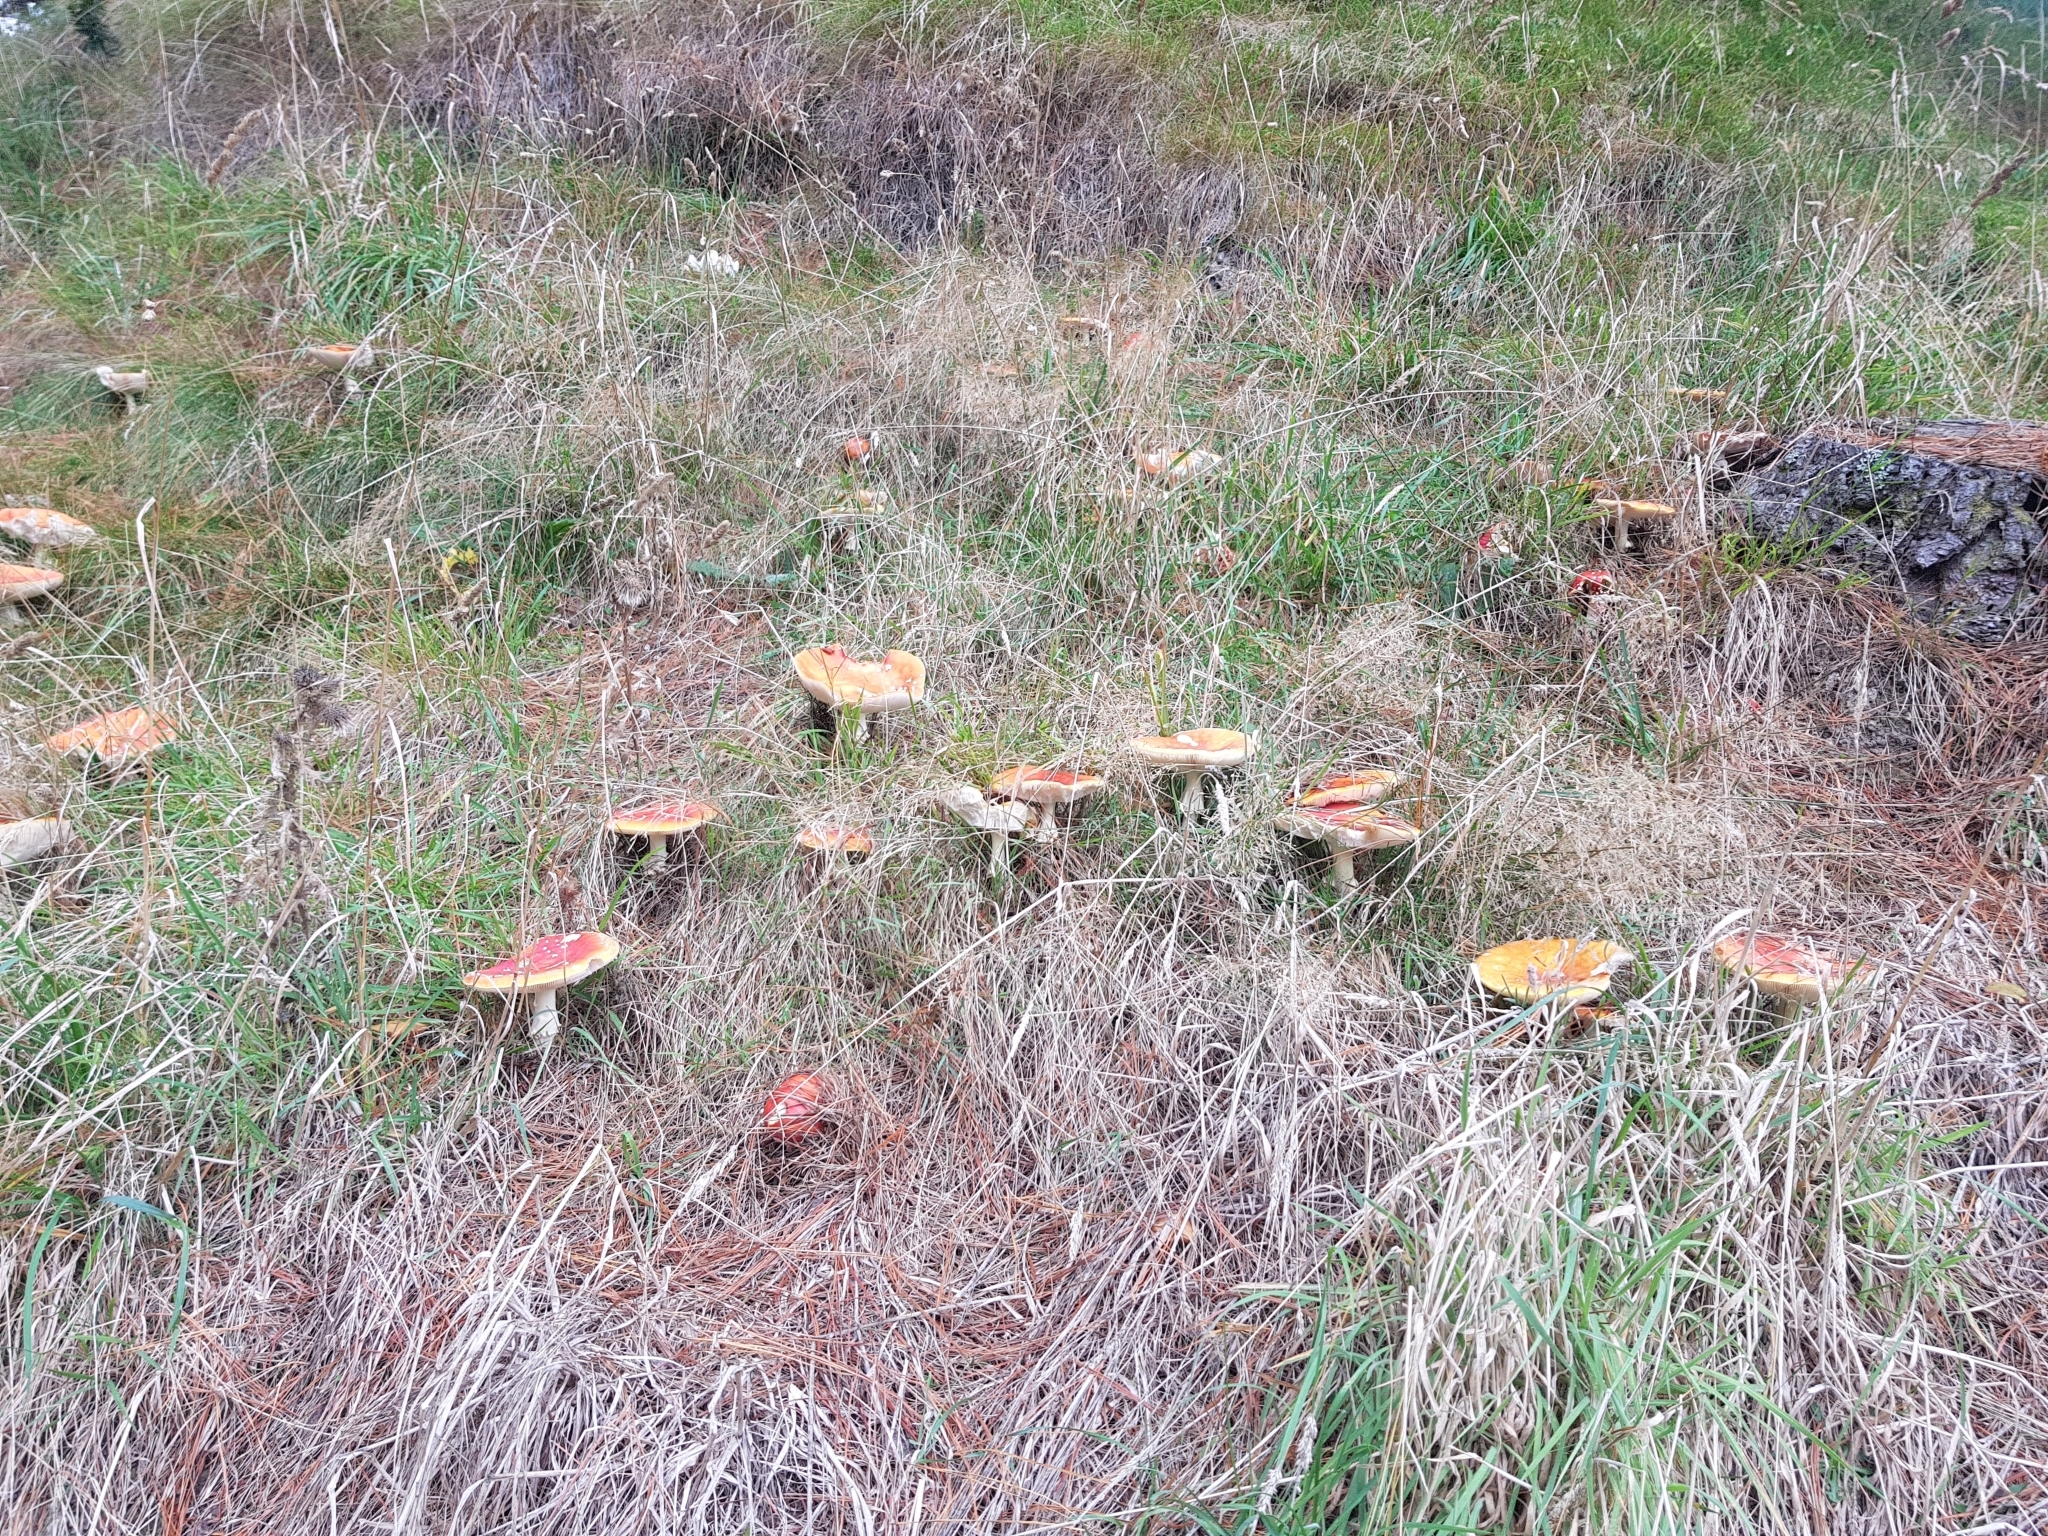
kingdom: Fungi
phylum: Basidiomycota
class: Agaricomycetes
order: Agaricales
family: Amanitaceae
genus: Amanita
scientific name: Amanita muscaria
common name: Fly agaric
